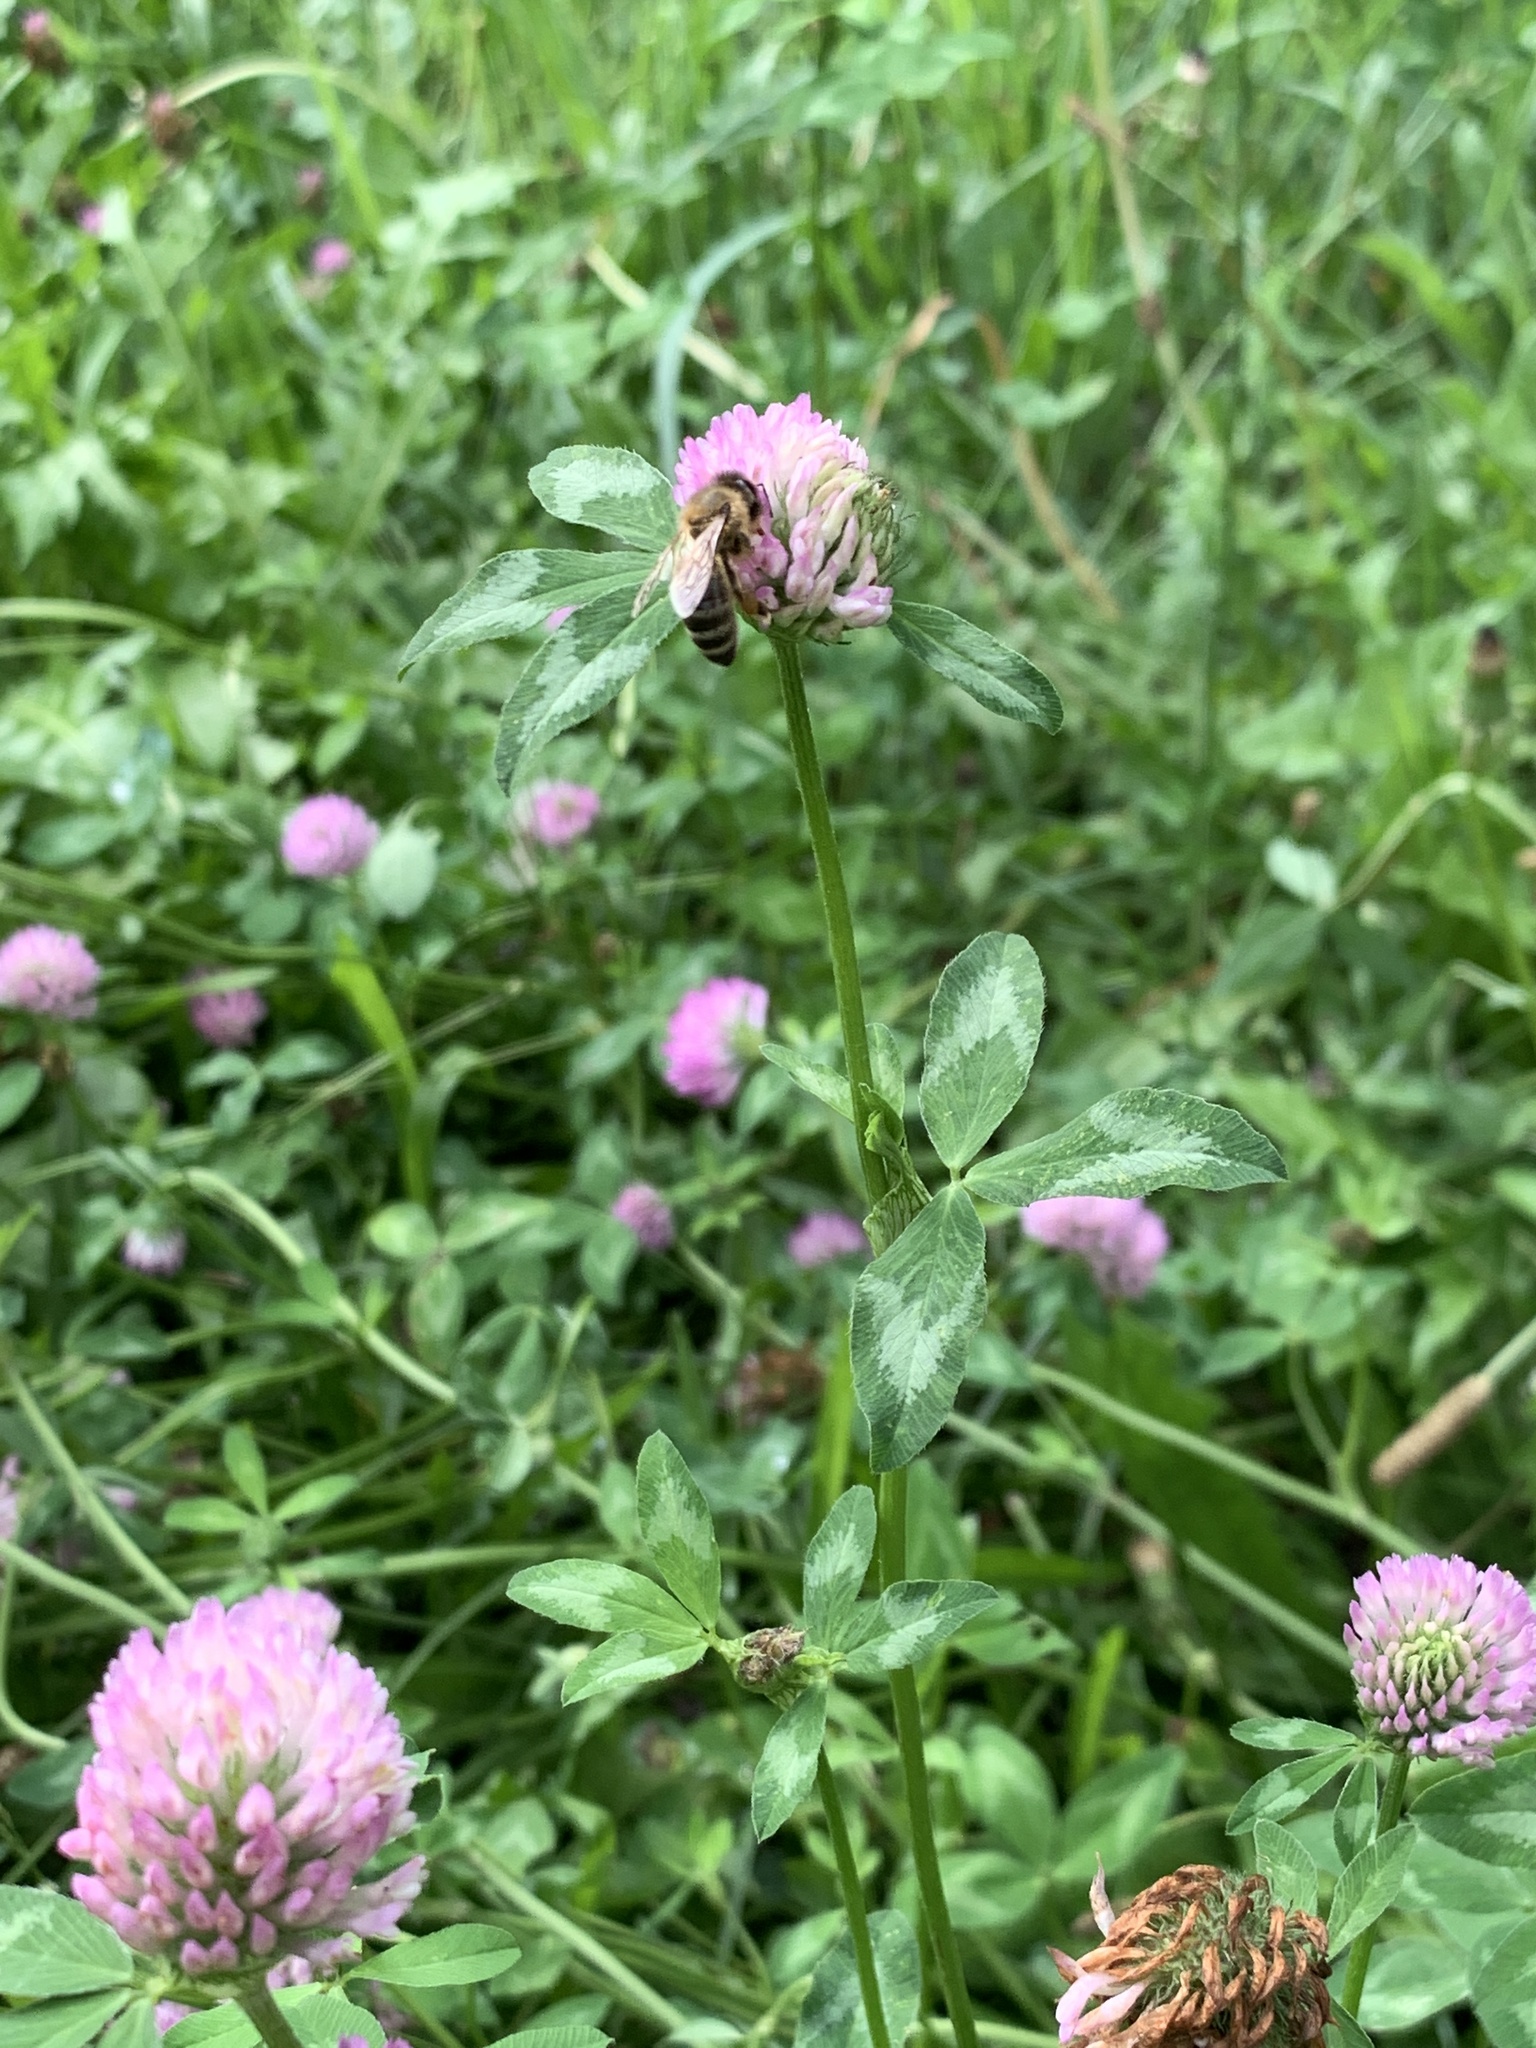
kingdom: Plantae
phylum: Tracheophyta
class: Magnoliopsida
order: Fabales
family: Fabaceae
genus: Trifolium
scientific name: Trifolium pratense
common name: Red clover
